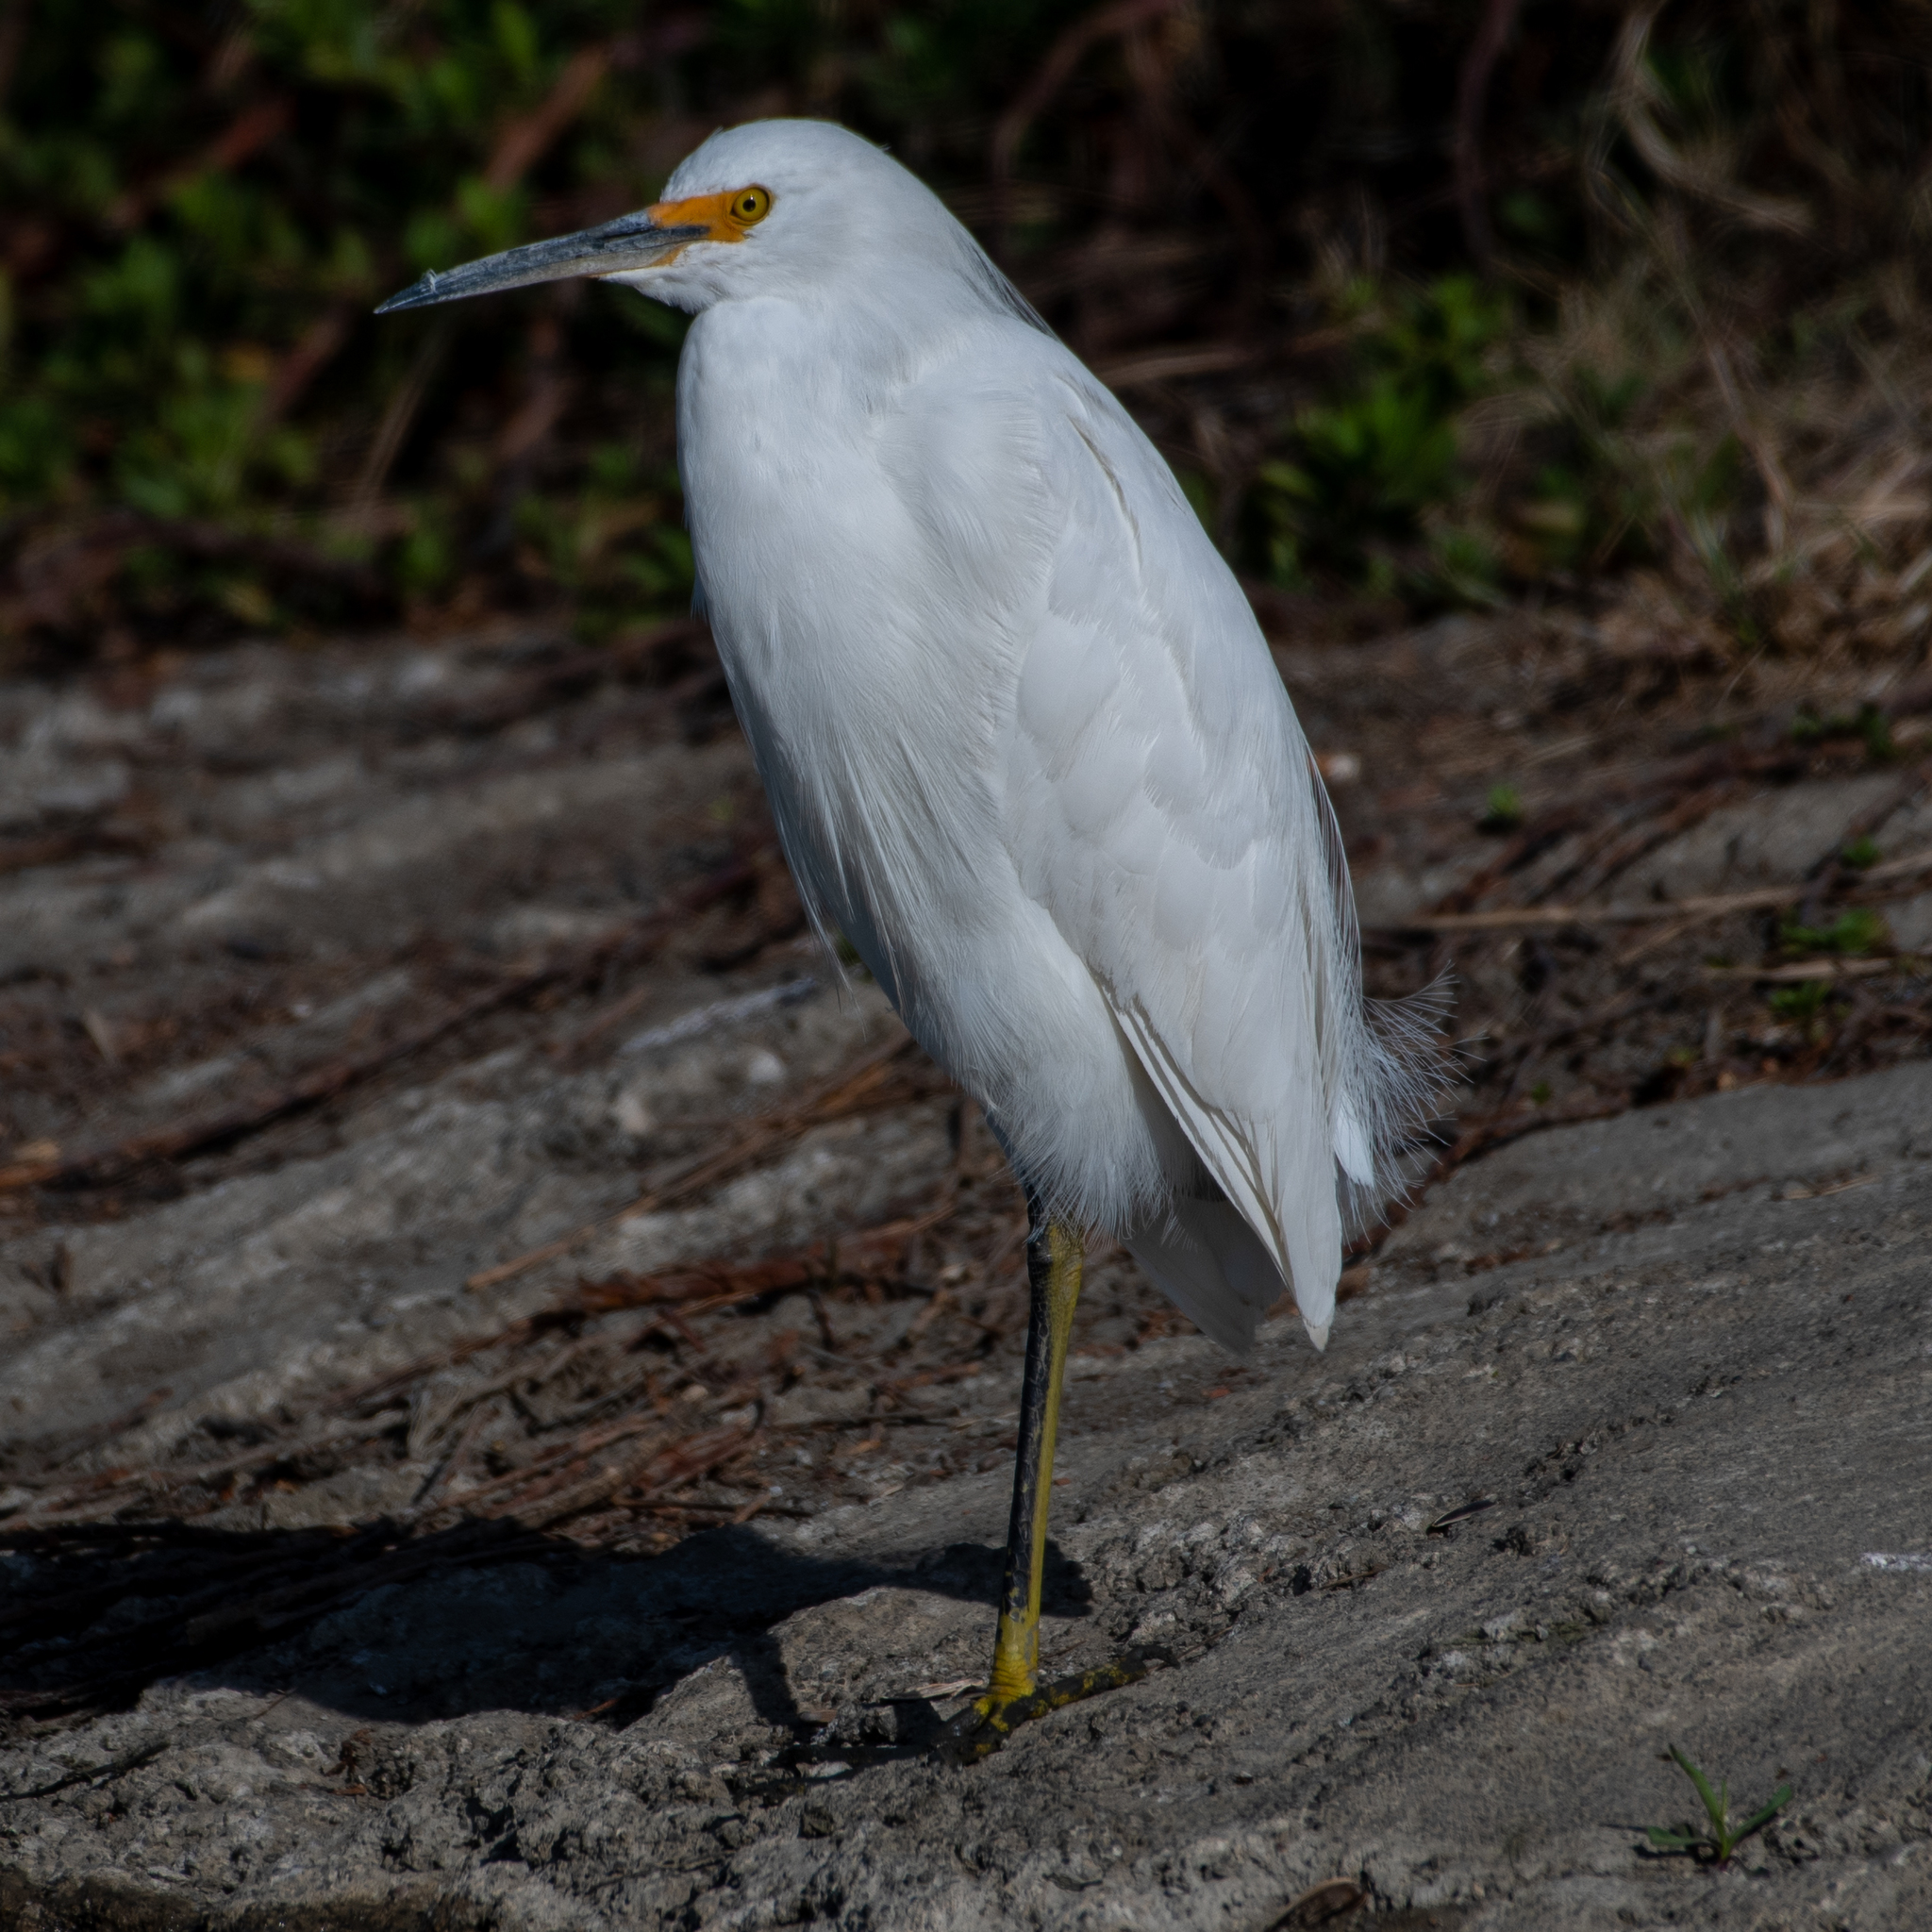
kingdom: Animalia
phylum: Chordata
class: Aves
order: Pelecaniformes
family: Ardeidae
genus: Egretta
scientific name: Egretta thula
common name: Snowy egret
